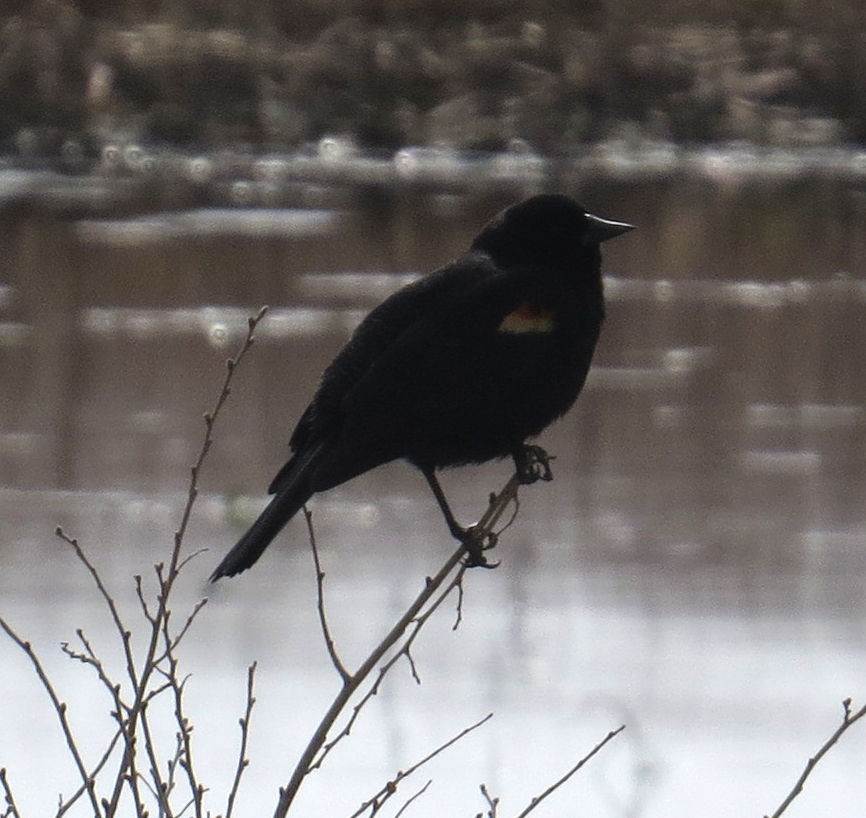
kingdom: Animalia
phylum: Chordata
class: Aves
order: Passeriformes
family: Icteridae
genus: Agelaius
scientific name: Agelaius phoeniceus
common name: Red-winged blackbird
